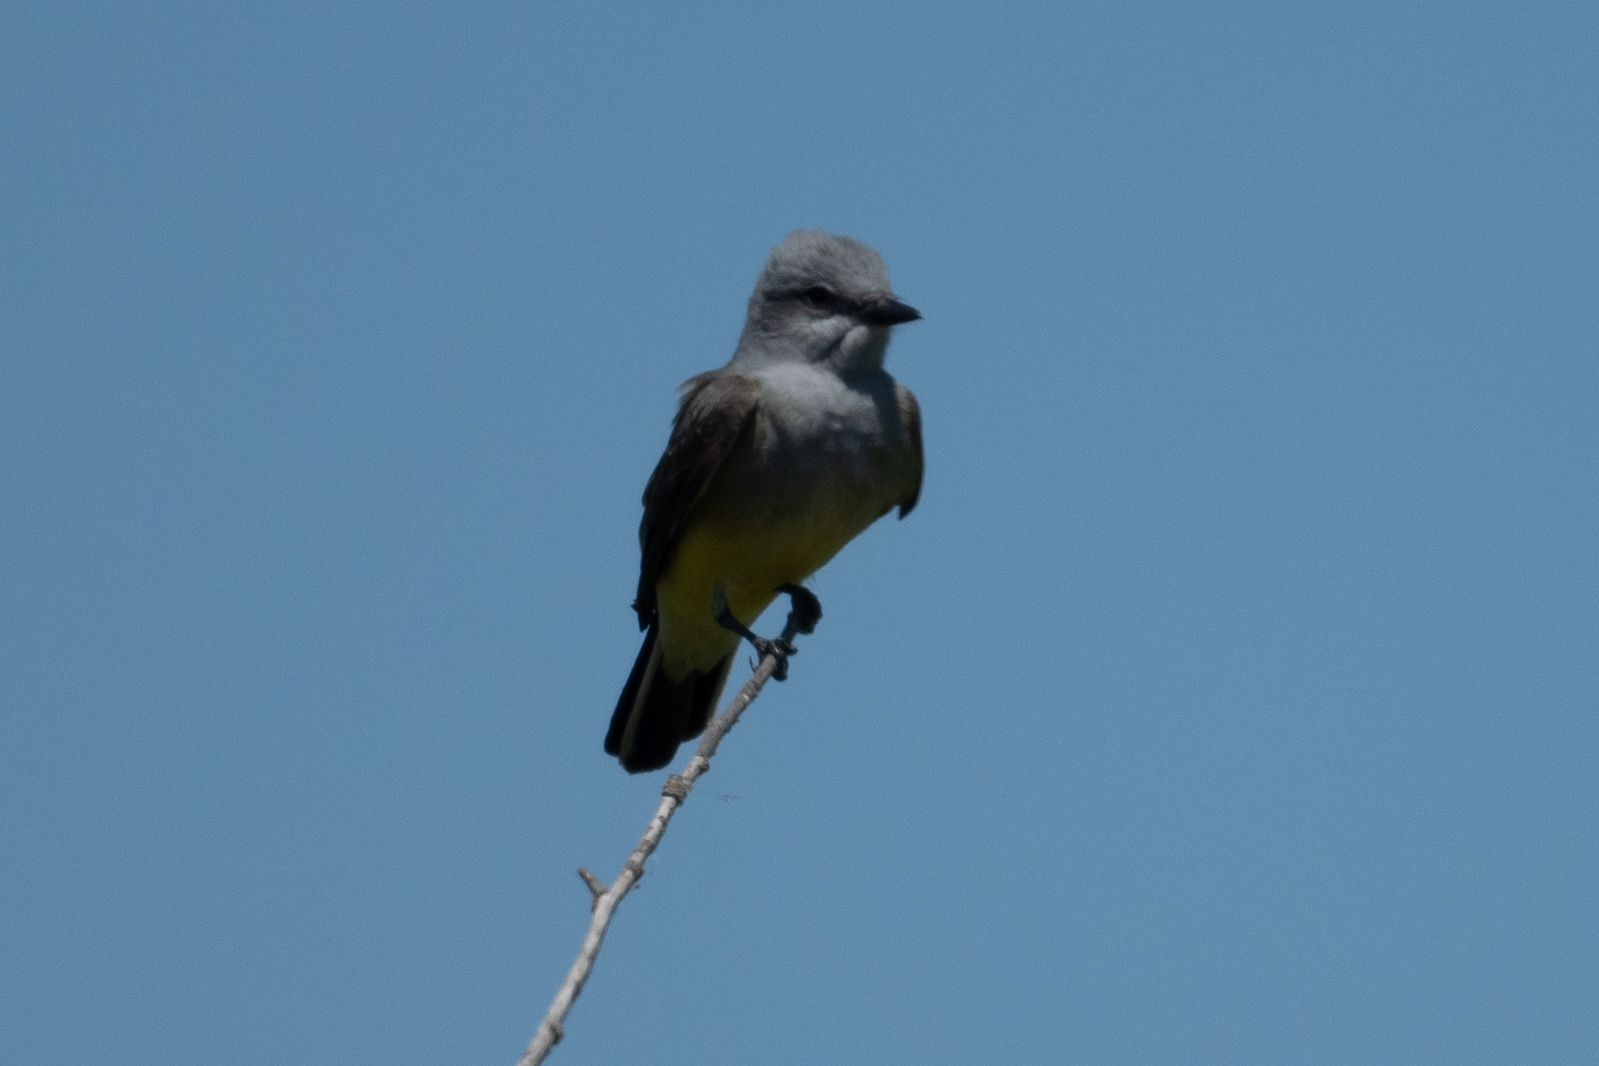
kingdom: Animalia
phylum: Chordata
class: Aves
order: Passeriformes
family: Tyrannidae
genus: Tyrannus
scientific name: Tyrannus verticalis
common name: Western kingbird
